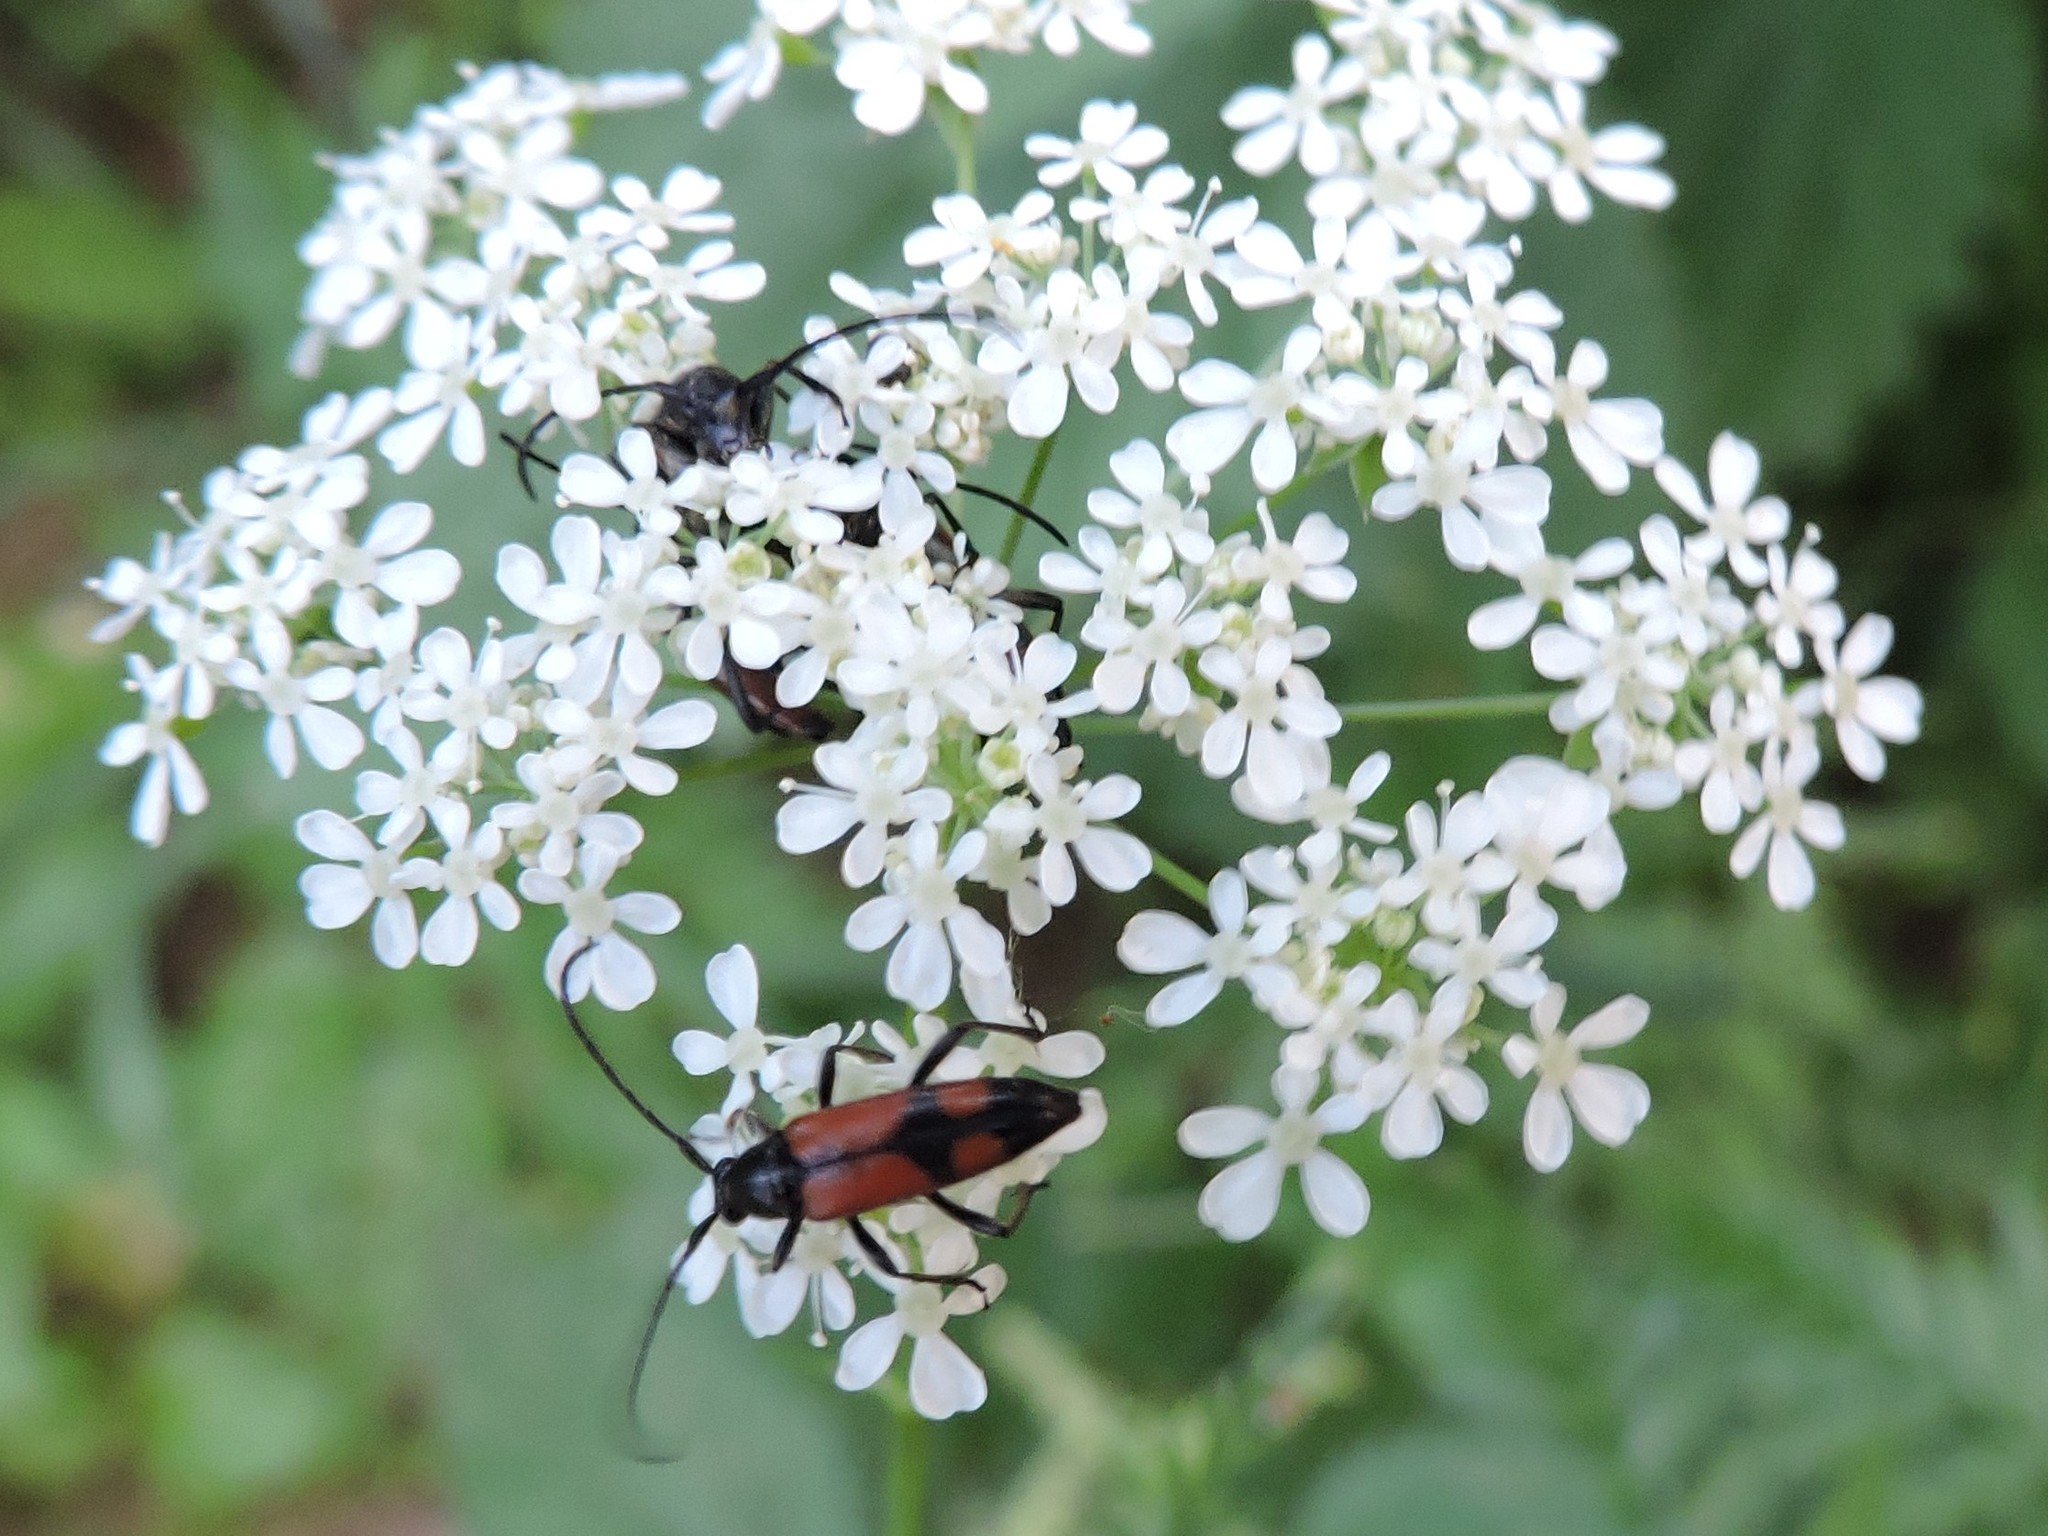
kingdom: Animalia
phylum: Arthropoda
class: Insecta
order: Coleoptera
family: Cerambycidae
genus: Stenurella
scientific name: Stenurella bifasciata
